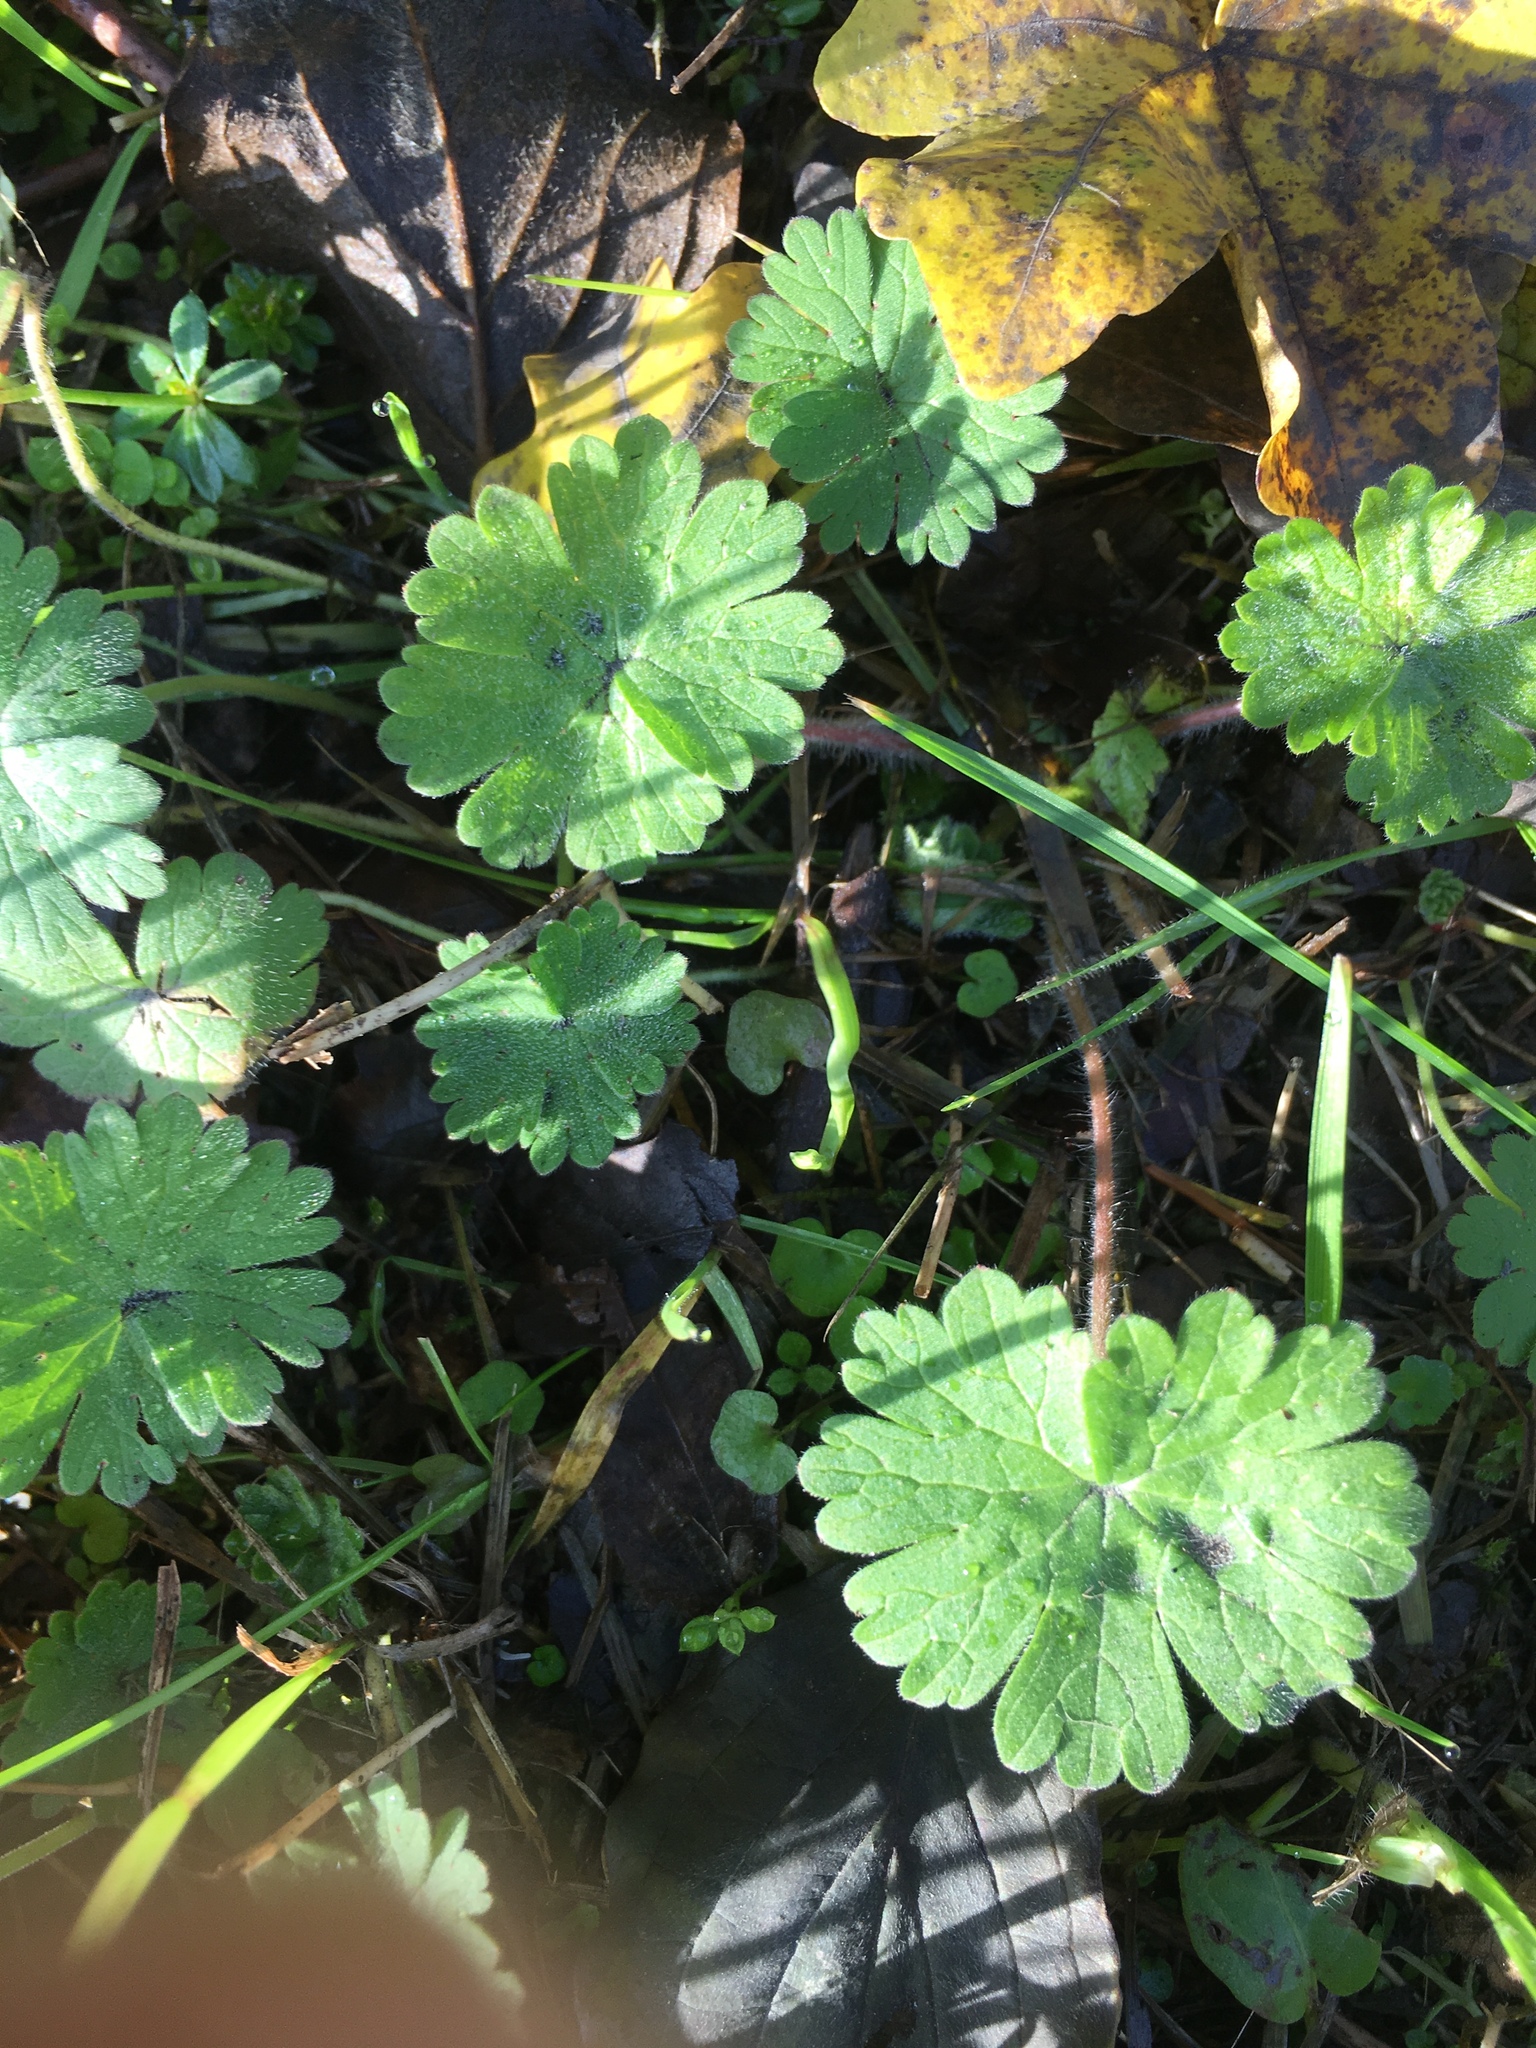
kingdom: Plantae
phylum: Tracheophyta
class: Magnoliopsida
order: Geraniales
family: Geraniaceae
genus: Geranium
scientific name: Geranium molle
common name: Dove's-foot crane's-bill
